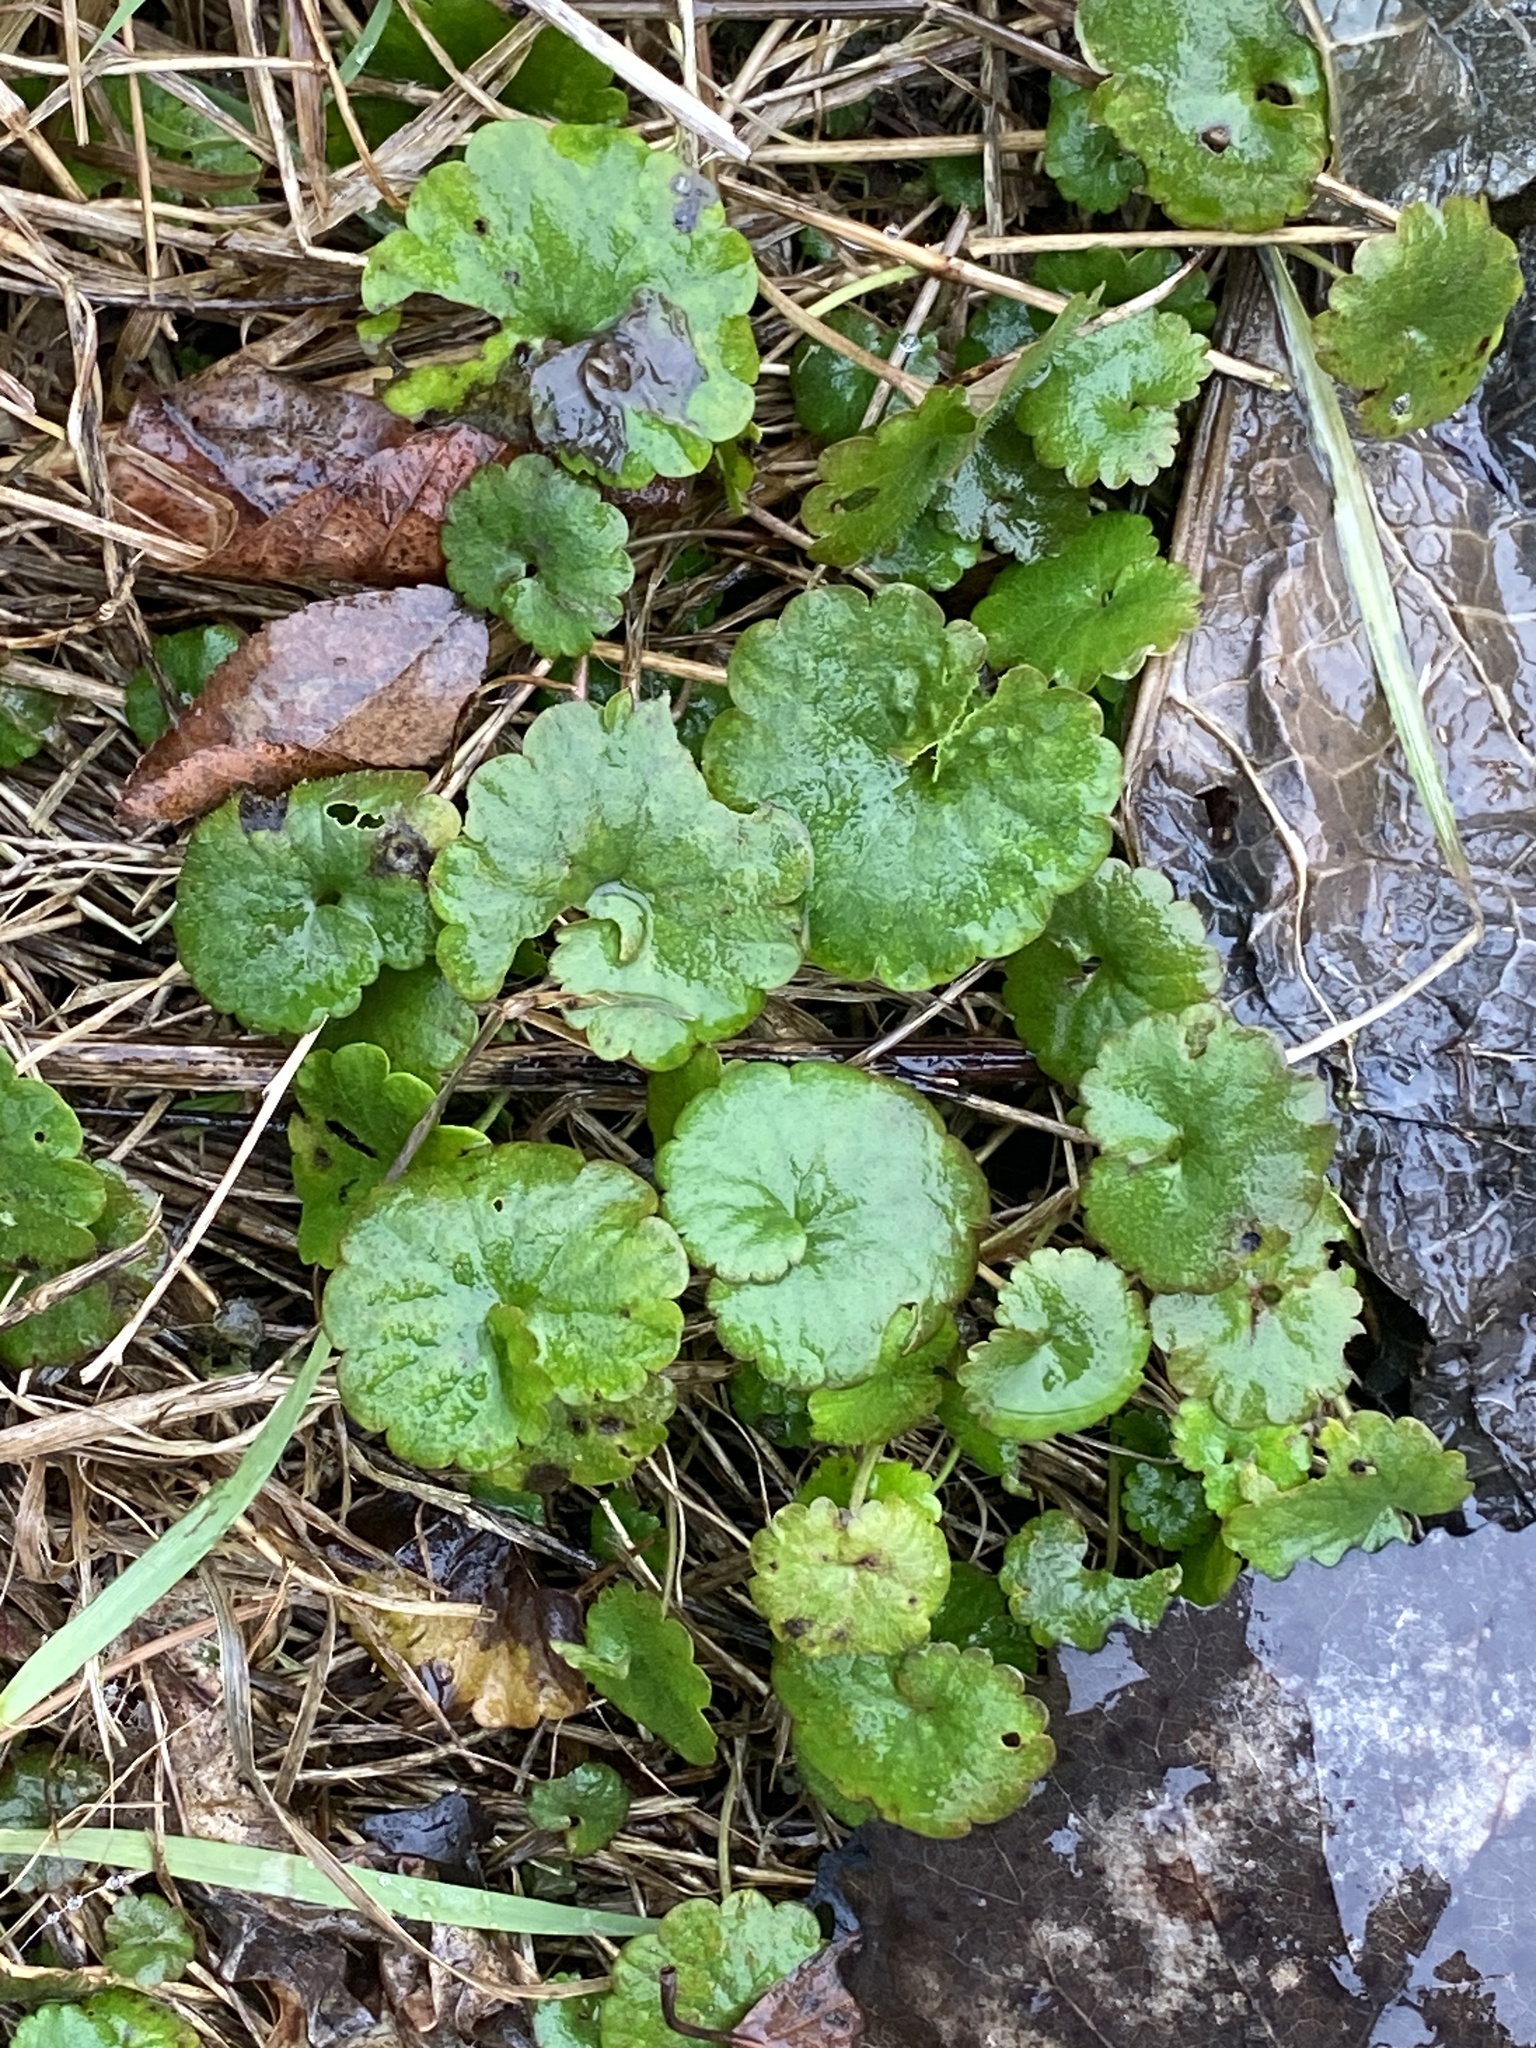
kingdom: Plantae
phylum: Tracheophyta
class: Magnoliopsida
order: Lamiales
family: Lamiaceae
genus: Glechoma
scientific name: Glechoma hederacea
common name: Ground ivy
